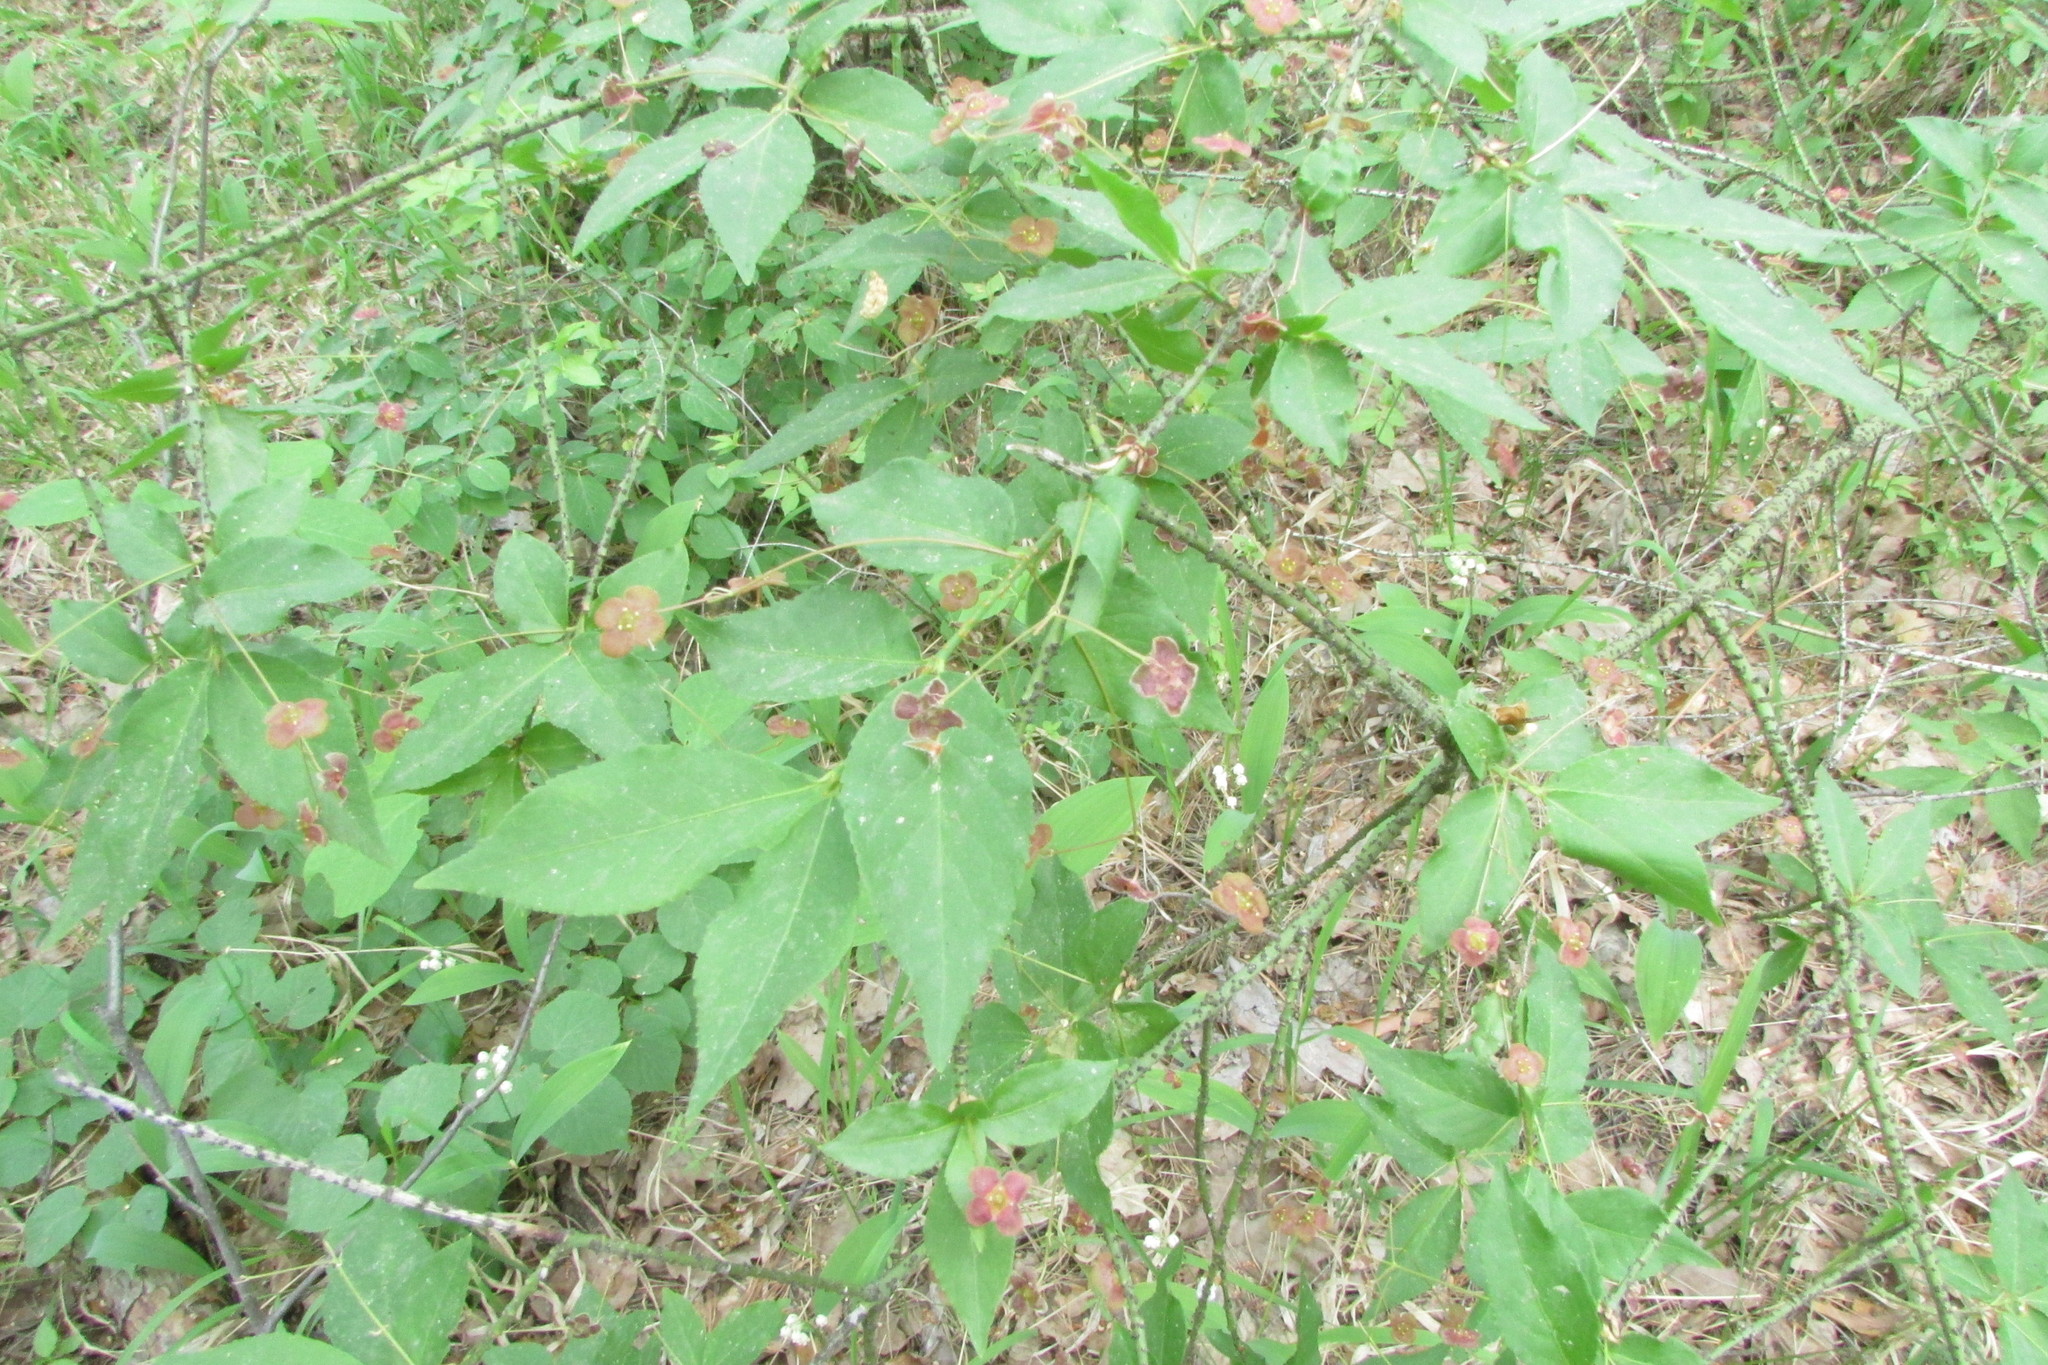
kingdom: Plantae
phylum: Tracheophyta
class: Magnoliopsida
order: Celastrales
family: Celastraceae
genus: Euonymus
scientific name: Euonymus verrucosus
